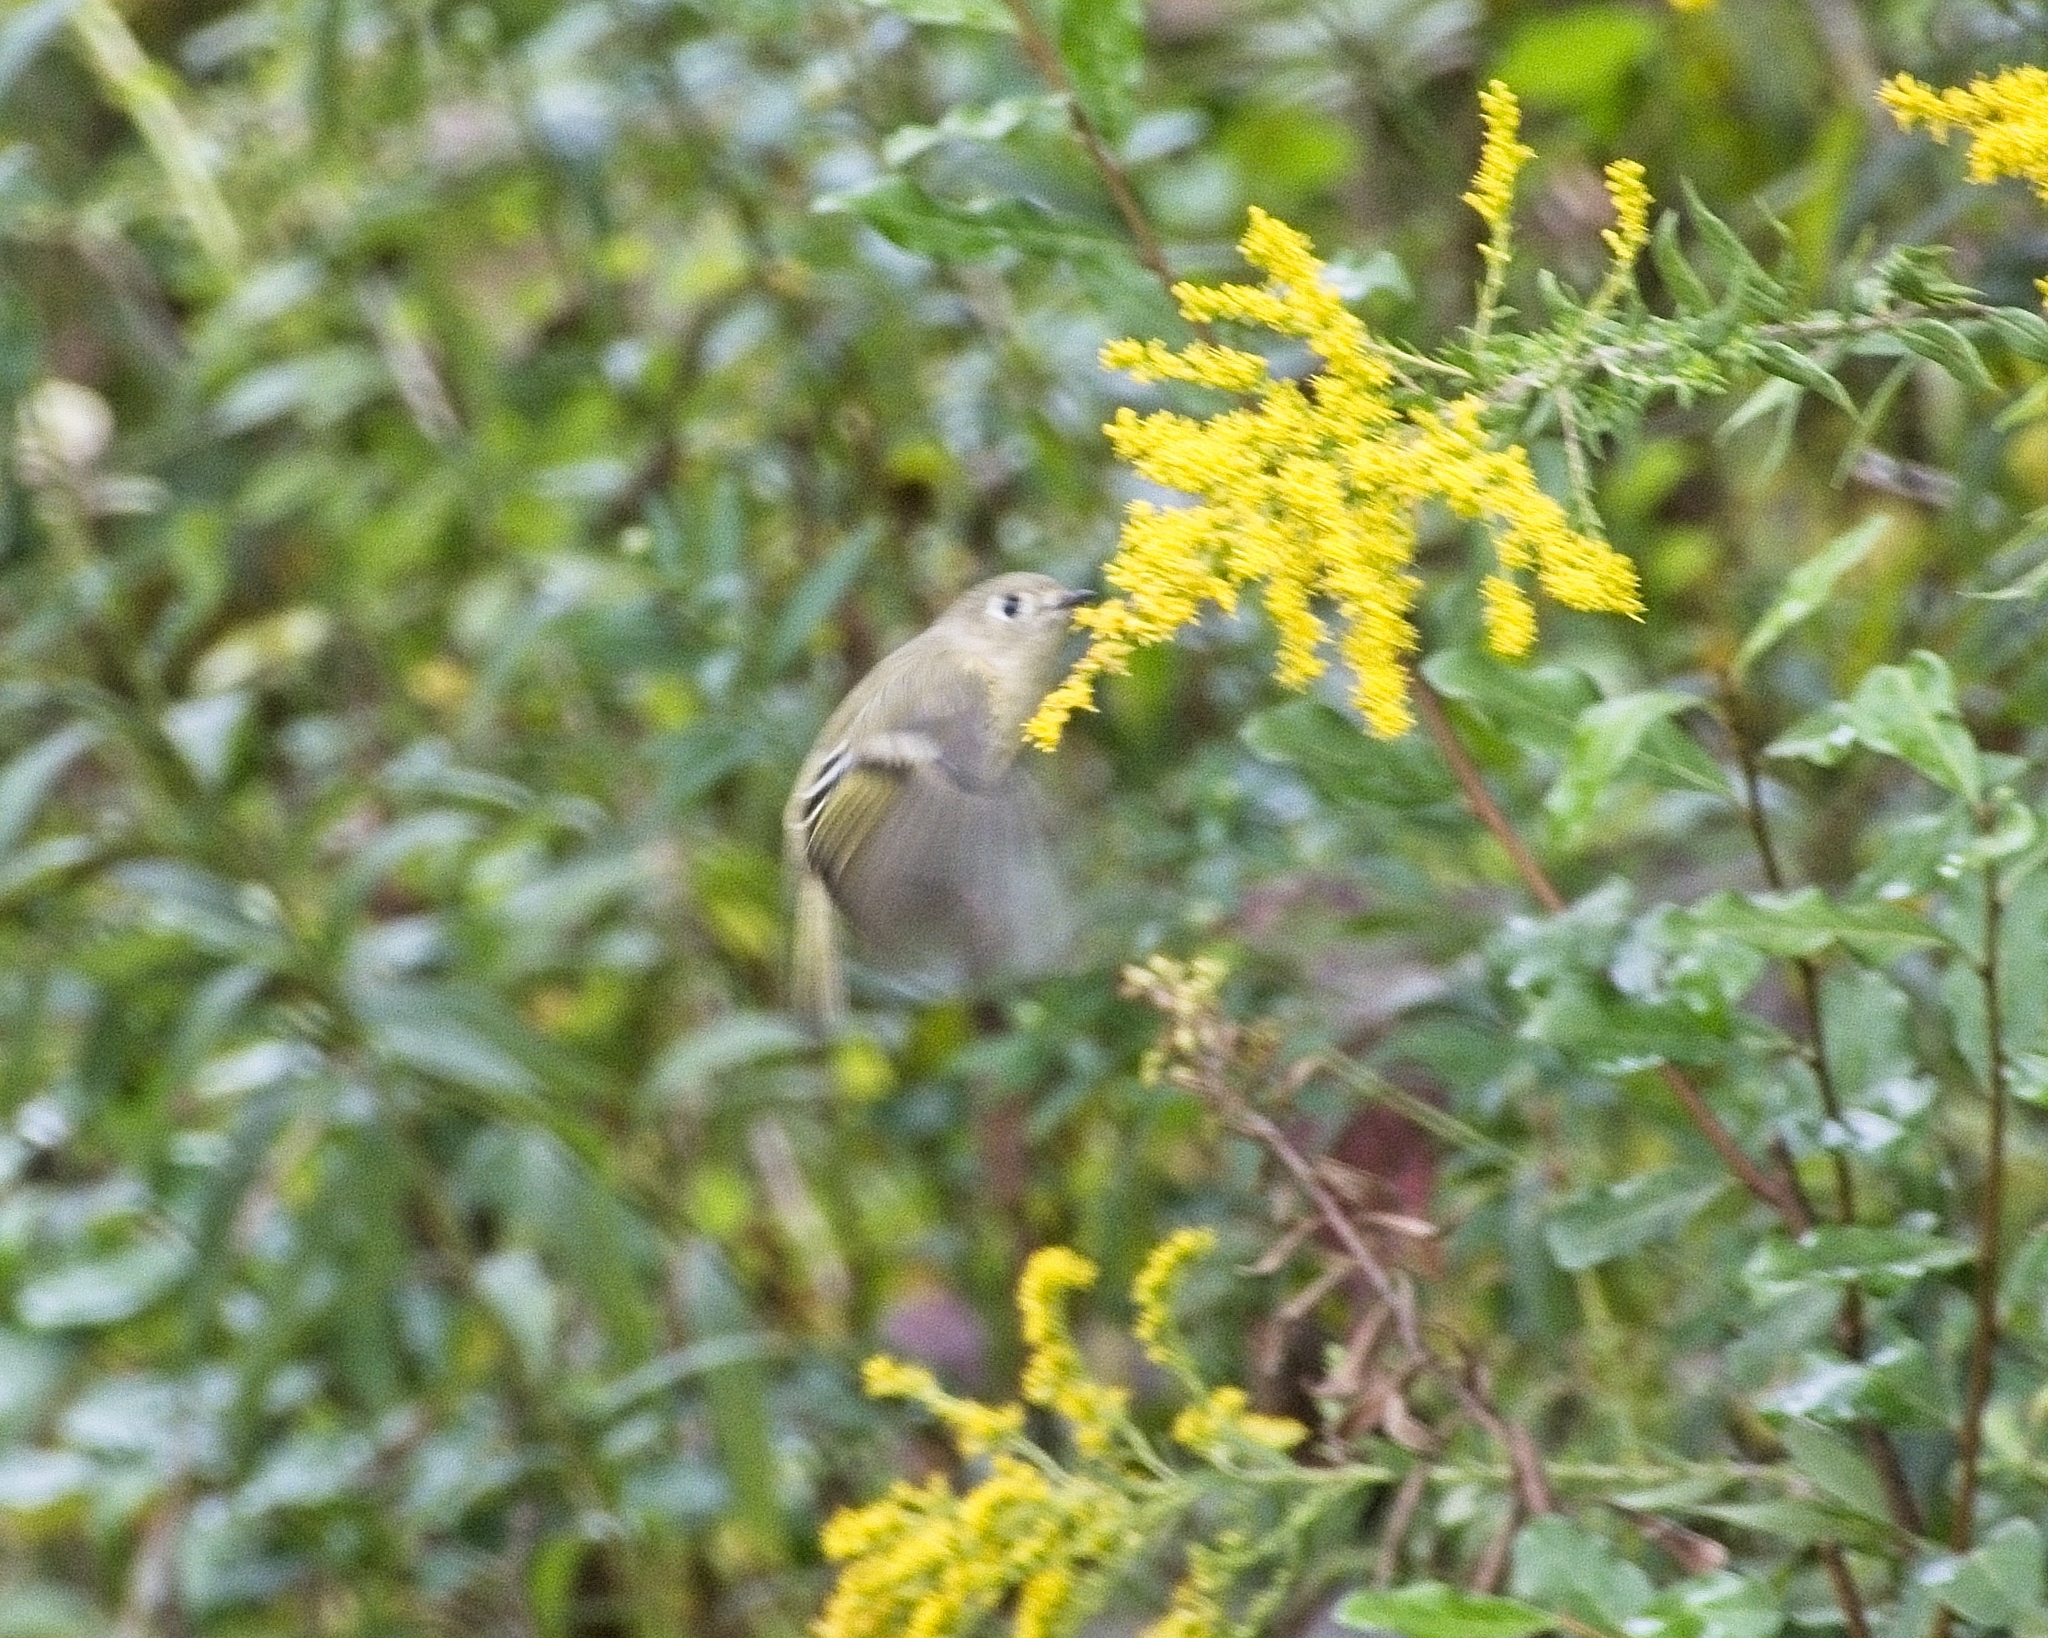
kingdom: Animalia
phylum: Chordata
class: Aves
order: Passeriformes
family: Regulidae
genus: Regulus
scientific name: Regulus calendula
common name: Ruby-crowned kinglet
